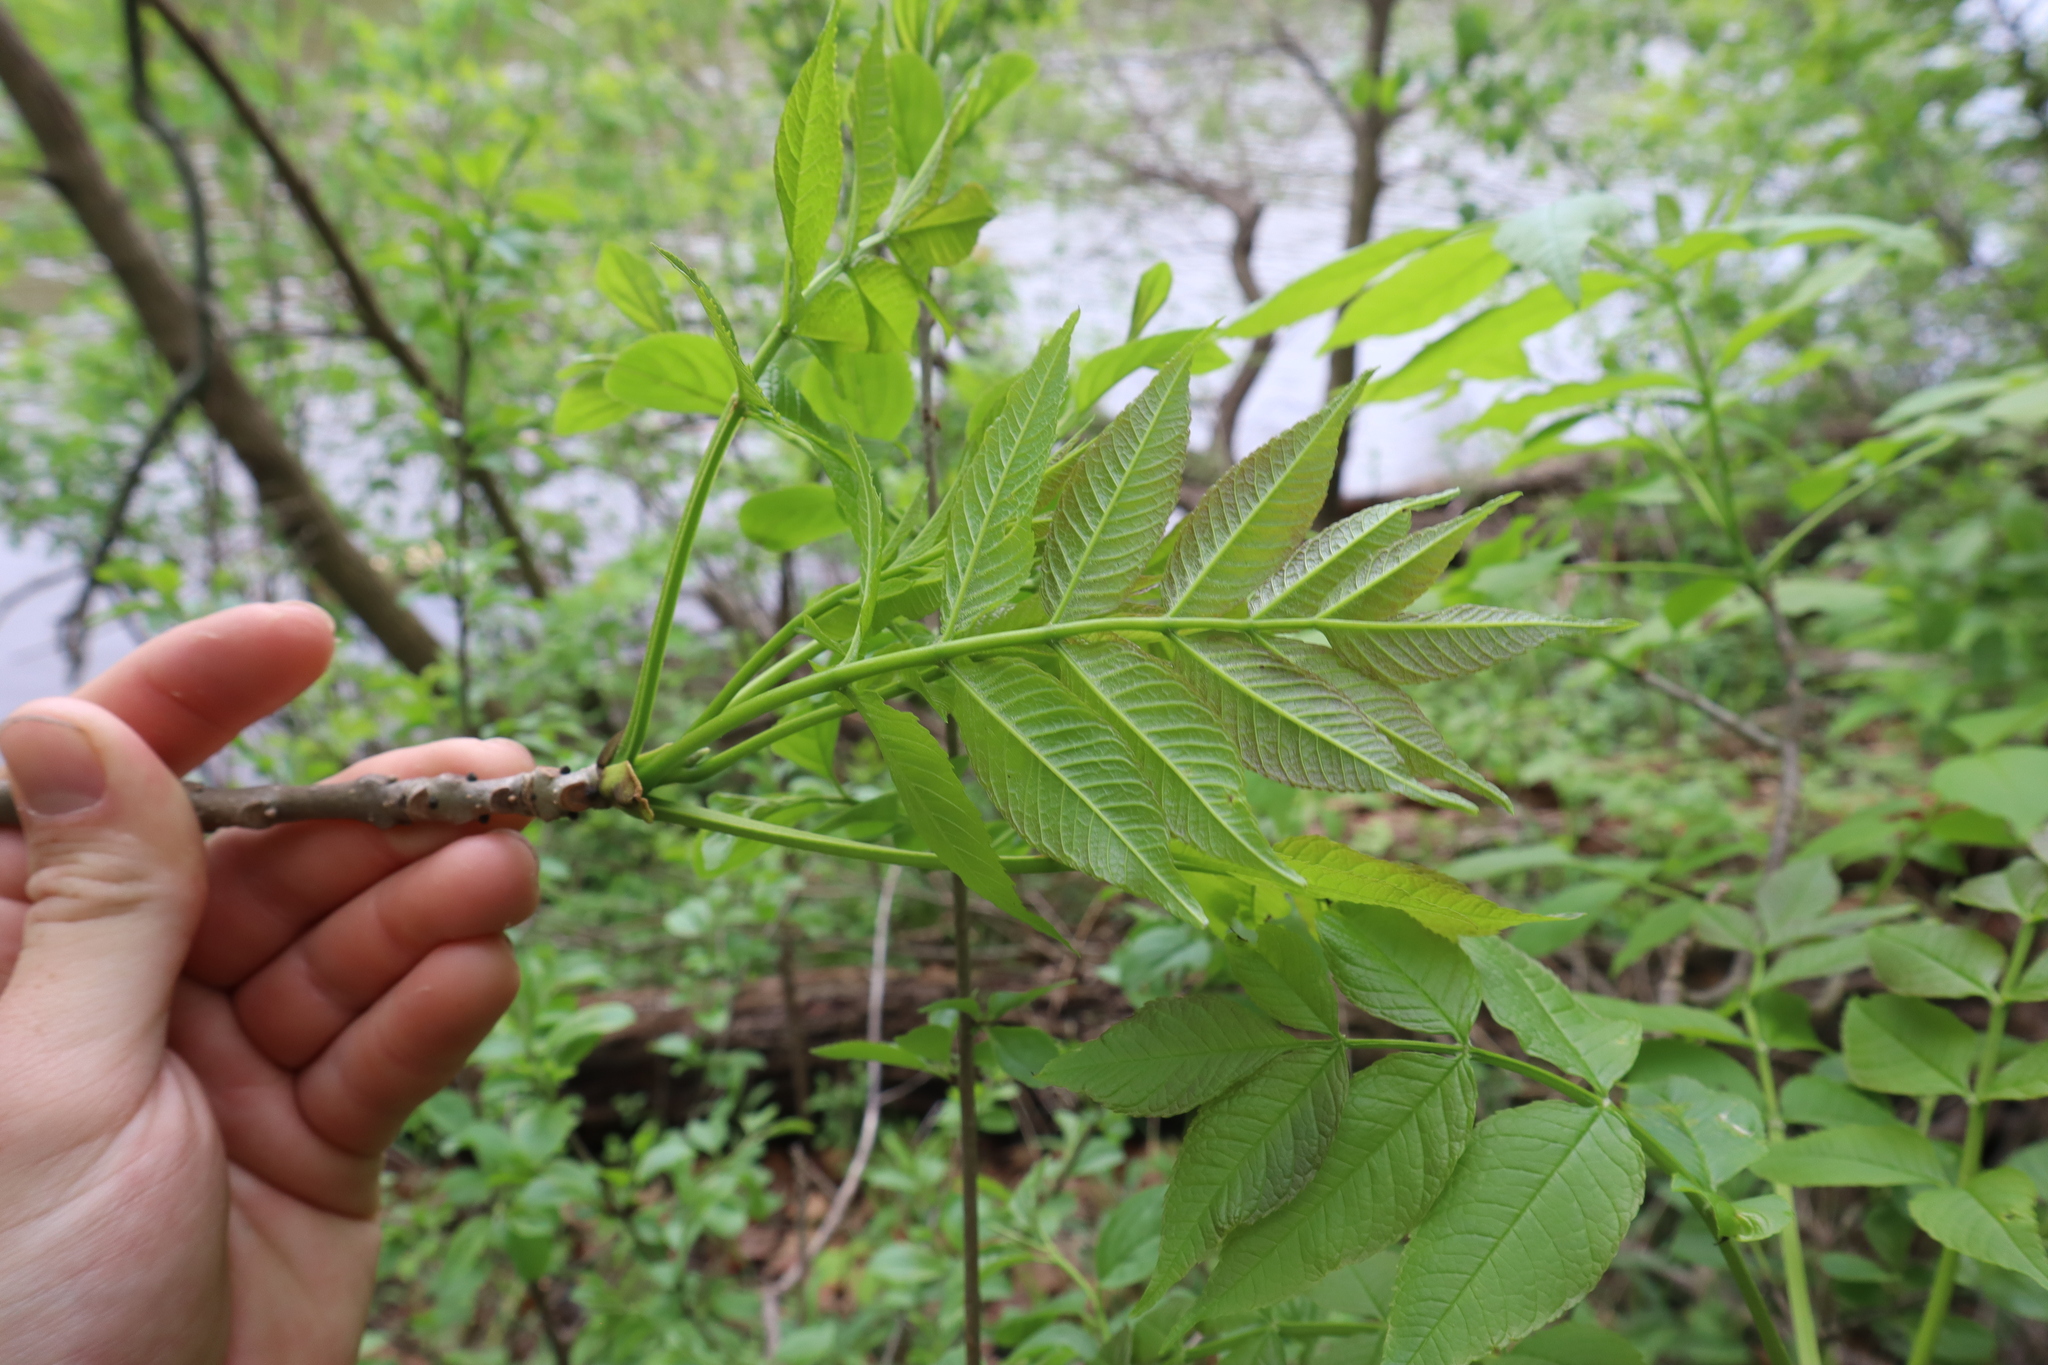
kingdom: Plantae
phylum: Tracheophyta
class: Magnoliopsida
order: Lamiales
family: Oleaceae
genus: Fraxinus
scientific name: Fraxinus nigra
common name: Black ash
